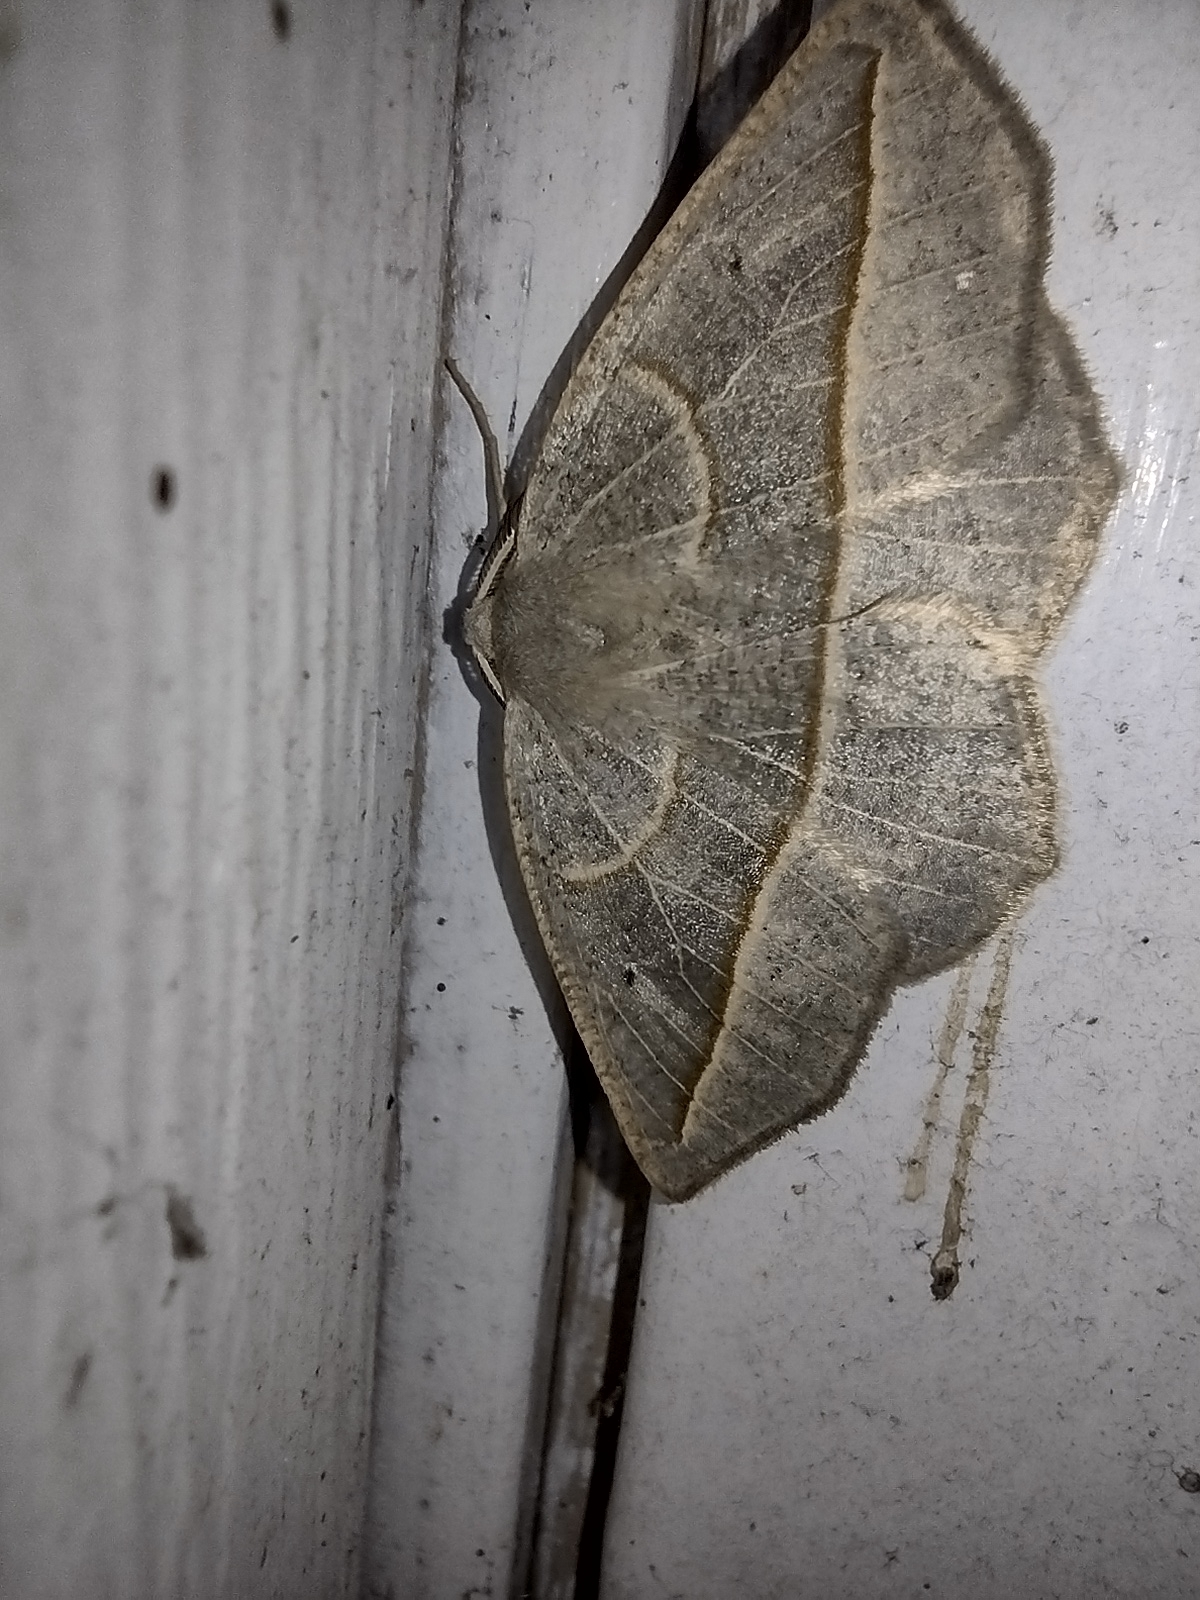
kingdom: Animalia
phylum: Arthropoda
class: Insecta
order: Lepidoptera
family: Geometridae
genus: Eusarca
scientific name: Eusarca confusaria
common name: Confused eusarca
